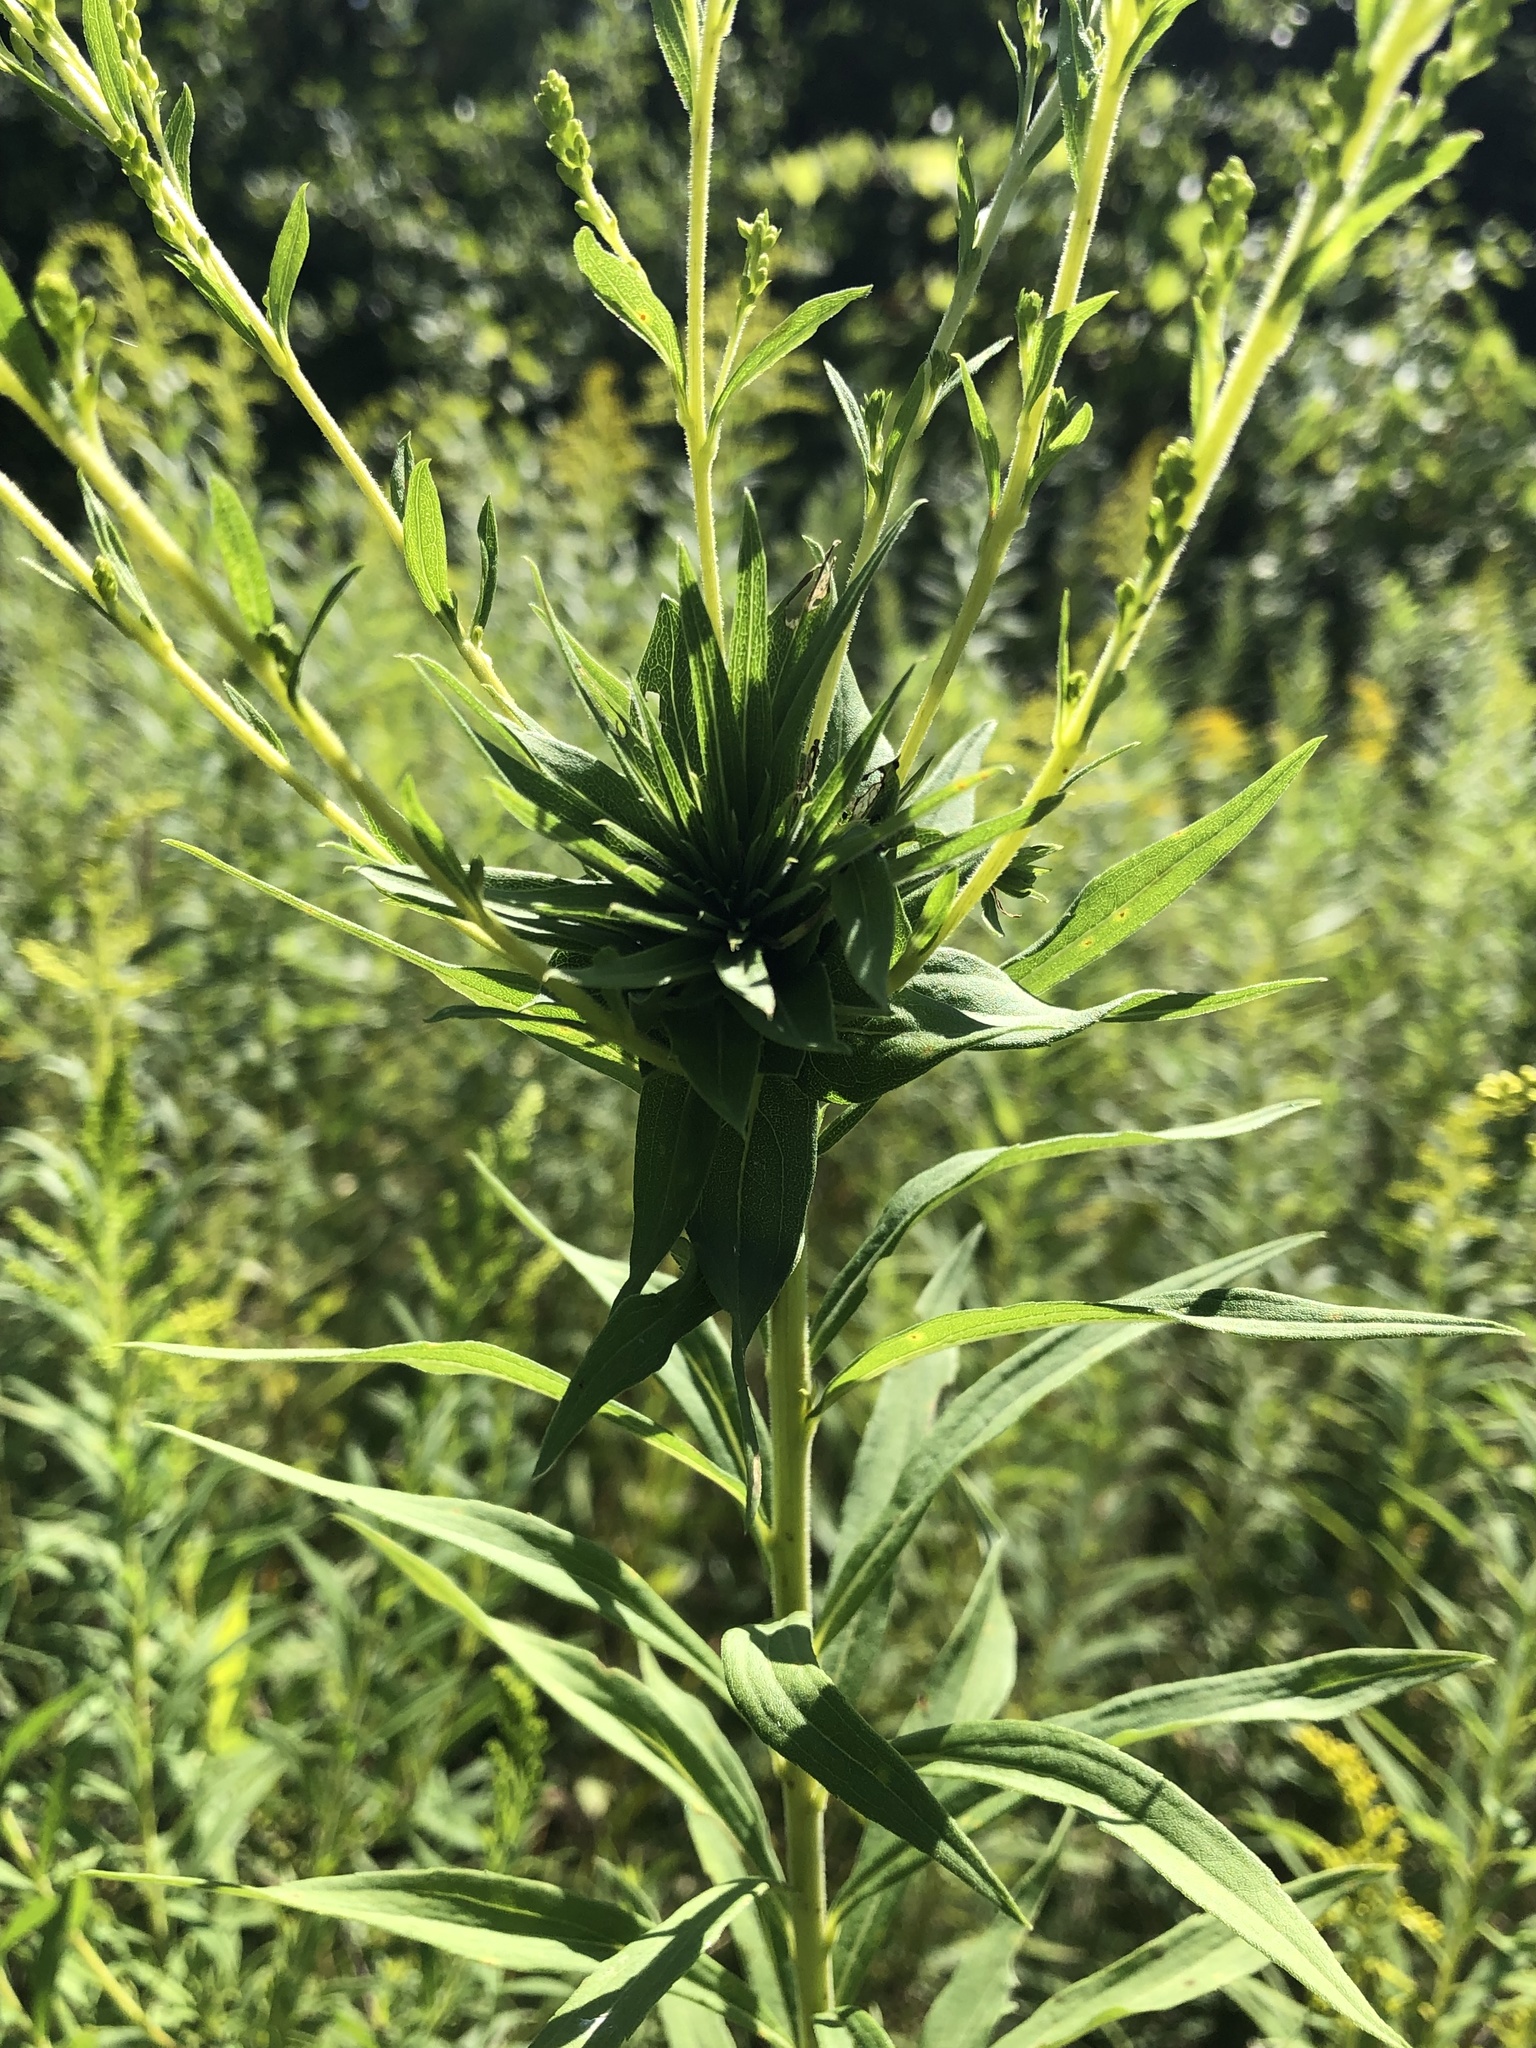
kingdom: Animalia
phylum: Arthropoda
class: Insecta
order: Diptera
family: Cecidomyiidae
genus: Rhopalomyia
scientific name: Rhopalomyia solidaginis
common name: Goldenrod bunch gall midge
